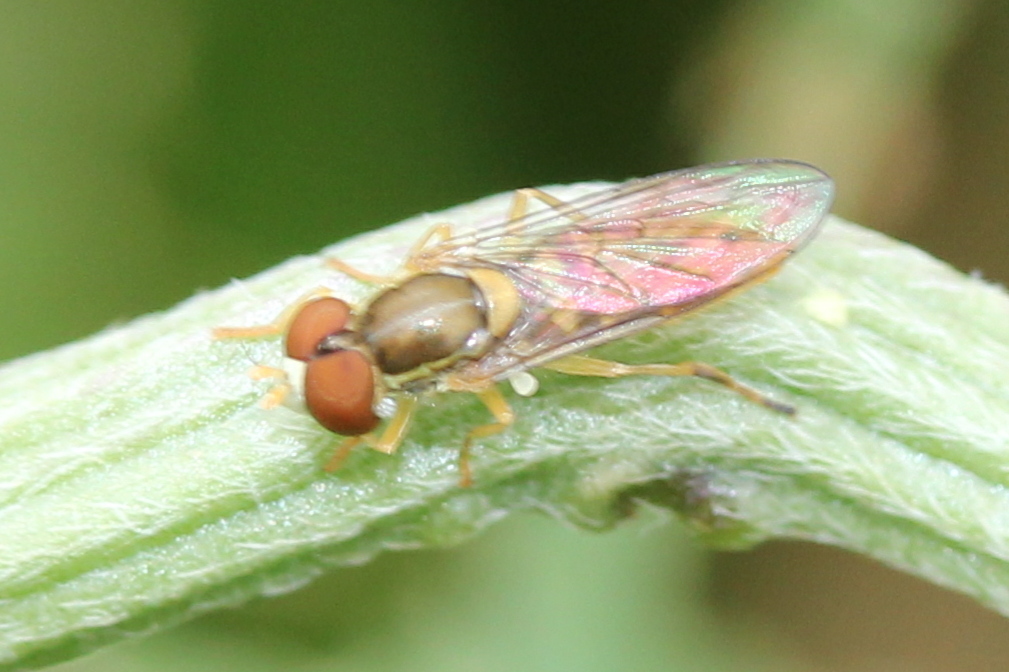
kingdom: Animalia
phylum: Arthropoda
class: Insecta
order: Diptera
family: Syrphidae
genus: Toxomerus
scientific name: Toxomerus marginatus
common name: Syrphid fly
